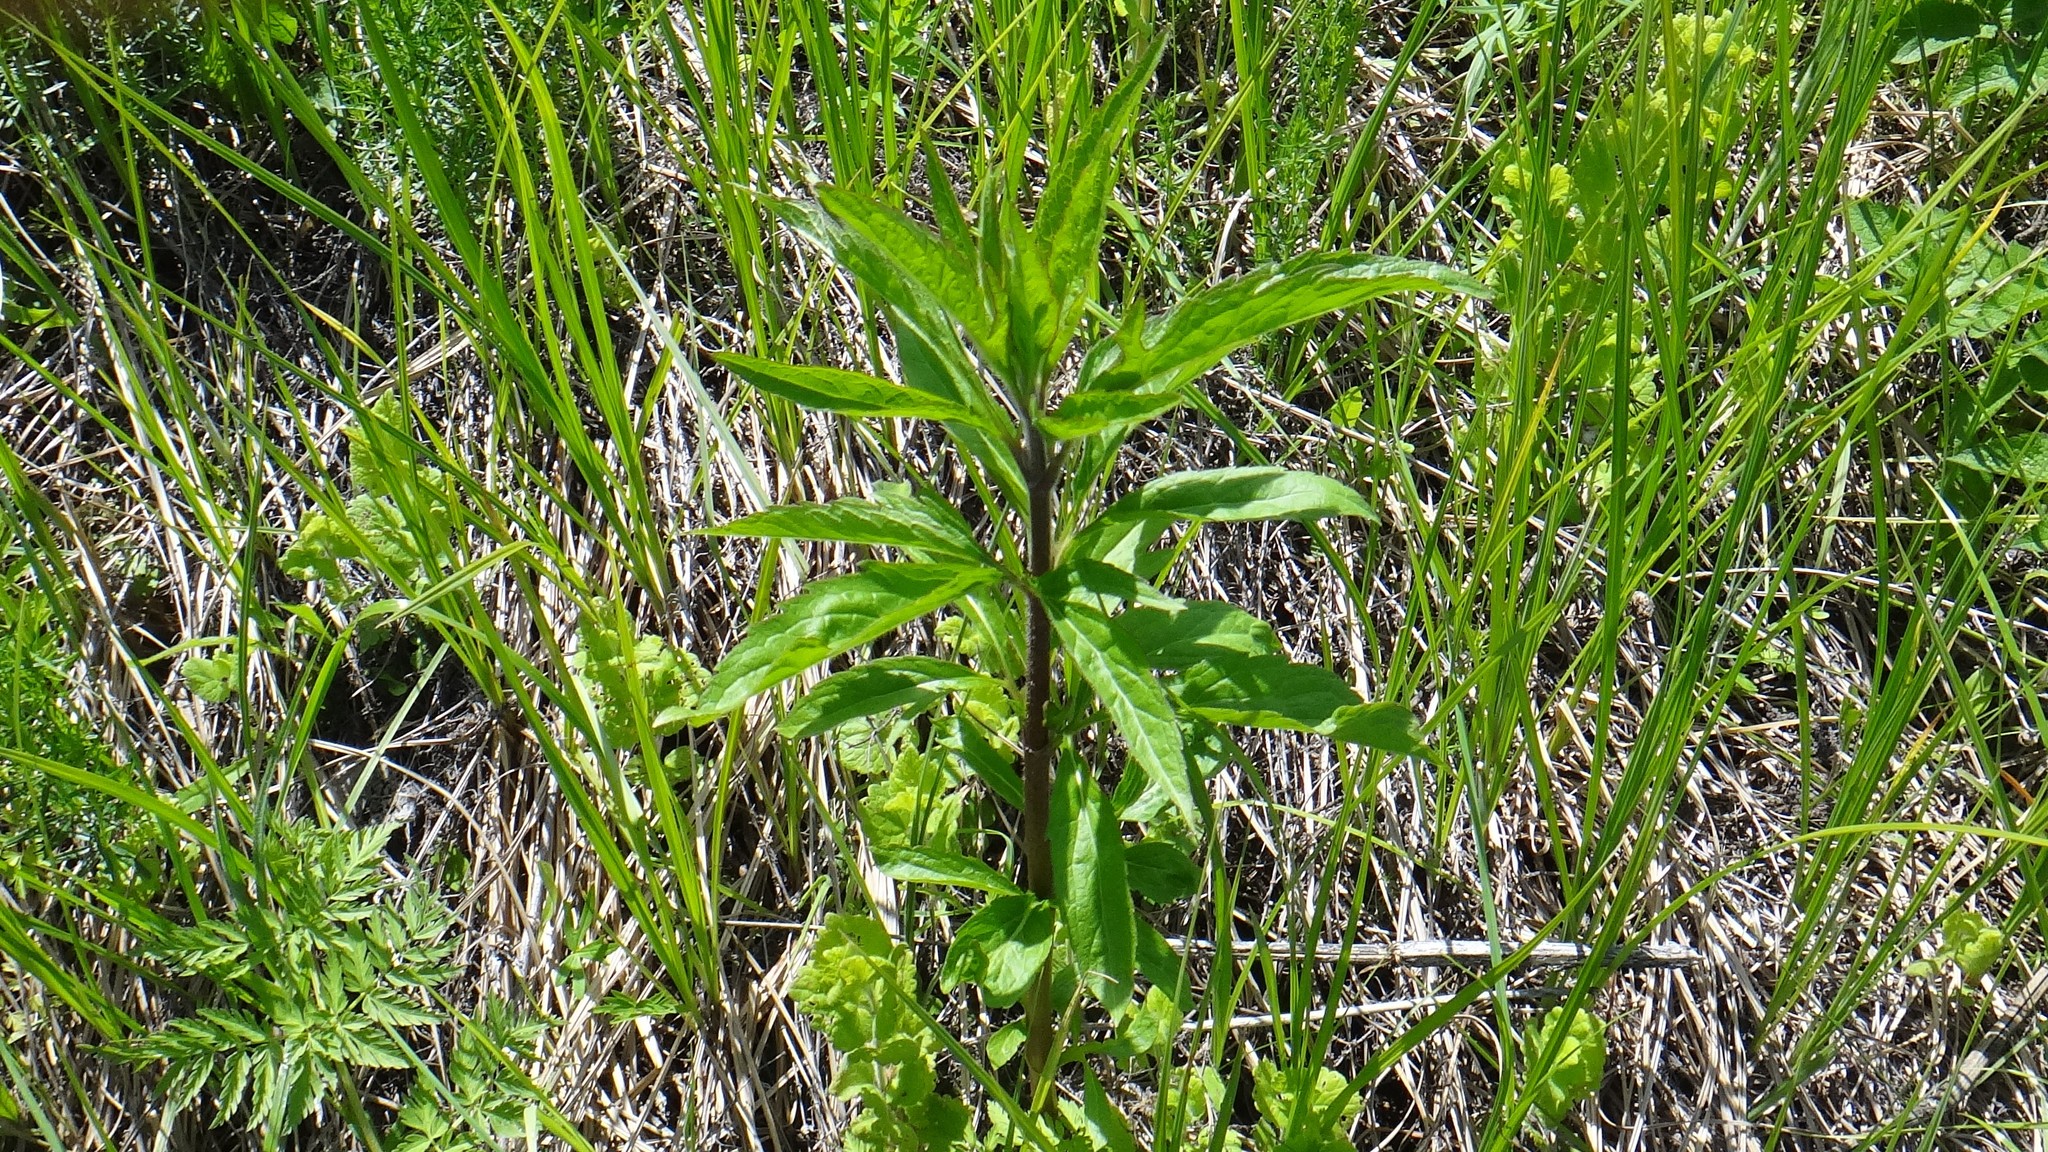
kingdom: Plantae
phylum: Tracheophyta
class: Magnoliopsida
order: Asterales
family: Asteraceae
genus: Eupatorium
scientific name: Eupatorium cannabinum
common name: Hemp-agrimony
